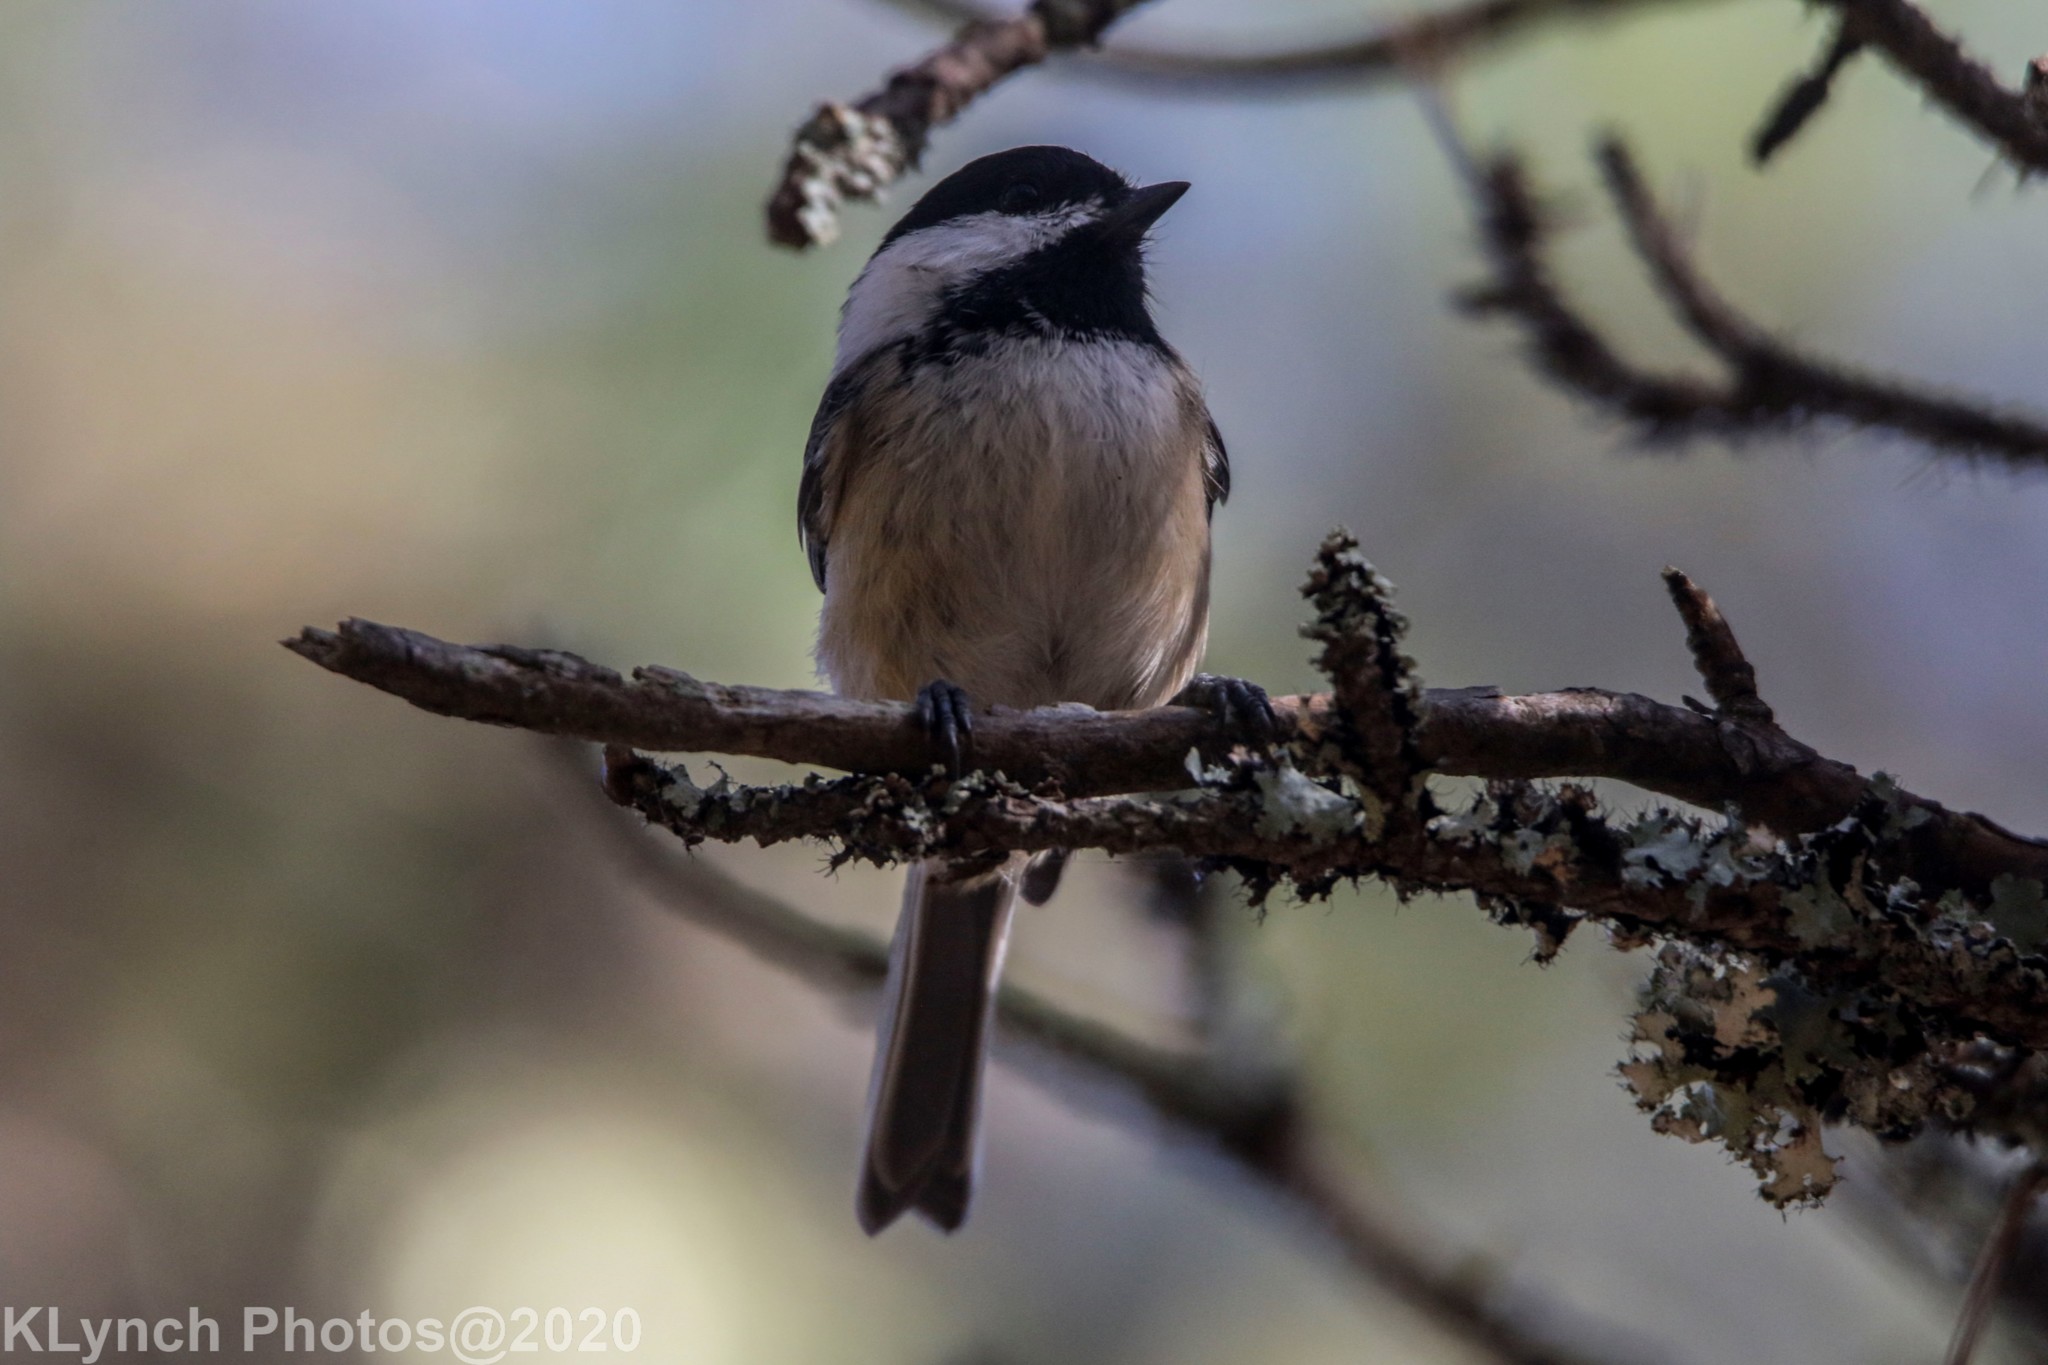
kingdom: Animalia
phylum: Chordata
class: Aves
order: Passeriformes
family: Paridae
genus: Poecile
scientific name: Poecile atricapillus
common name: Black-capped chickadee
